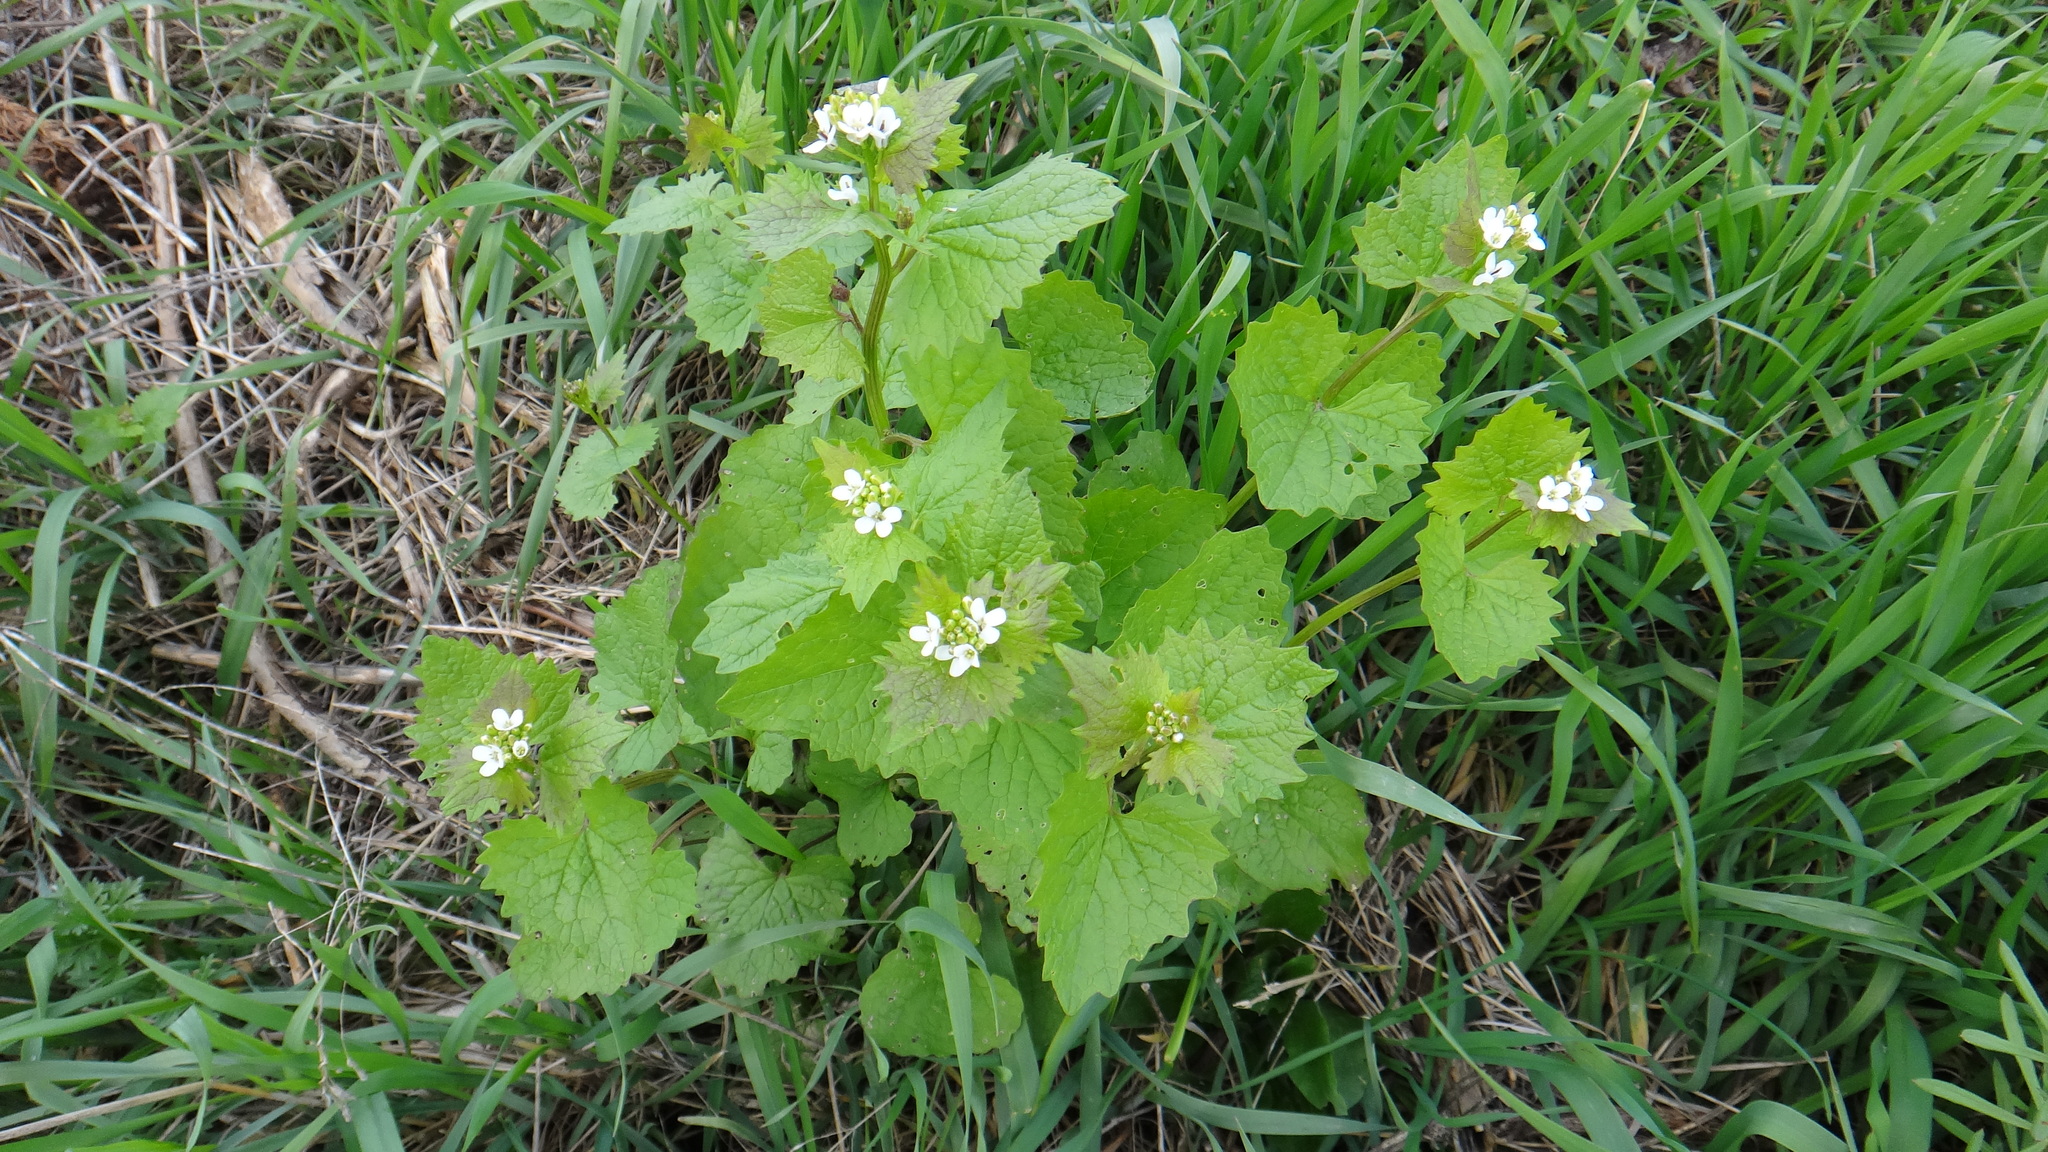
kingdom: Plantae
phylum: Tracheophyta
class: Magnoliopsida
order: Brassicales
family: Brassicaceae
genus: Alliaria
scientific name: Alliaria petiolata
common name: Garlic mustard
